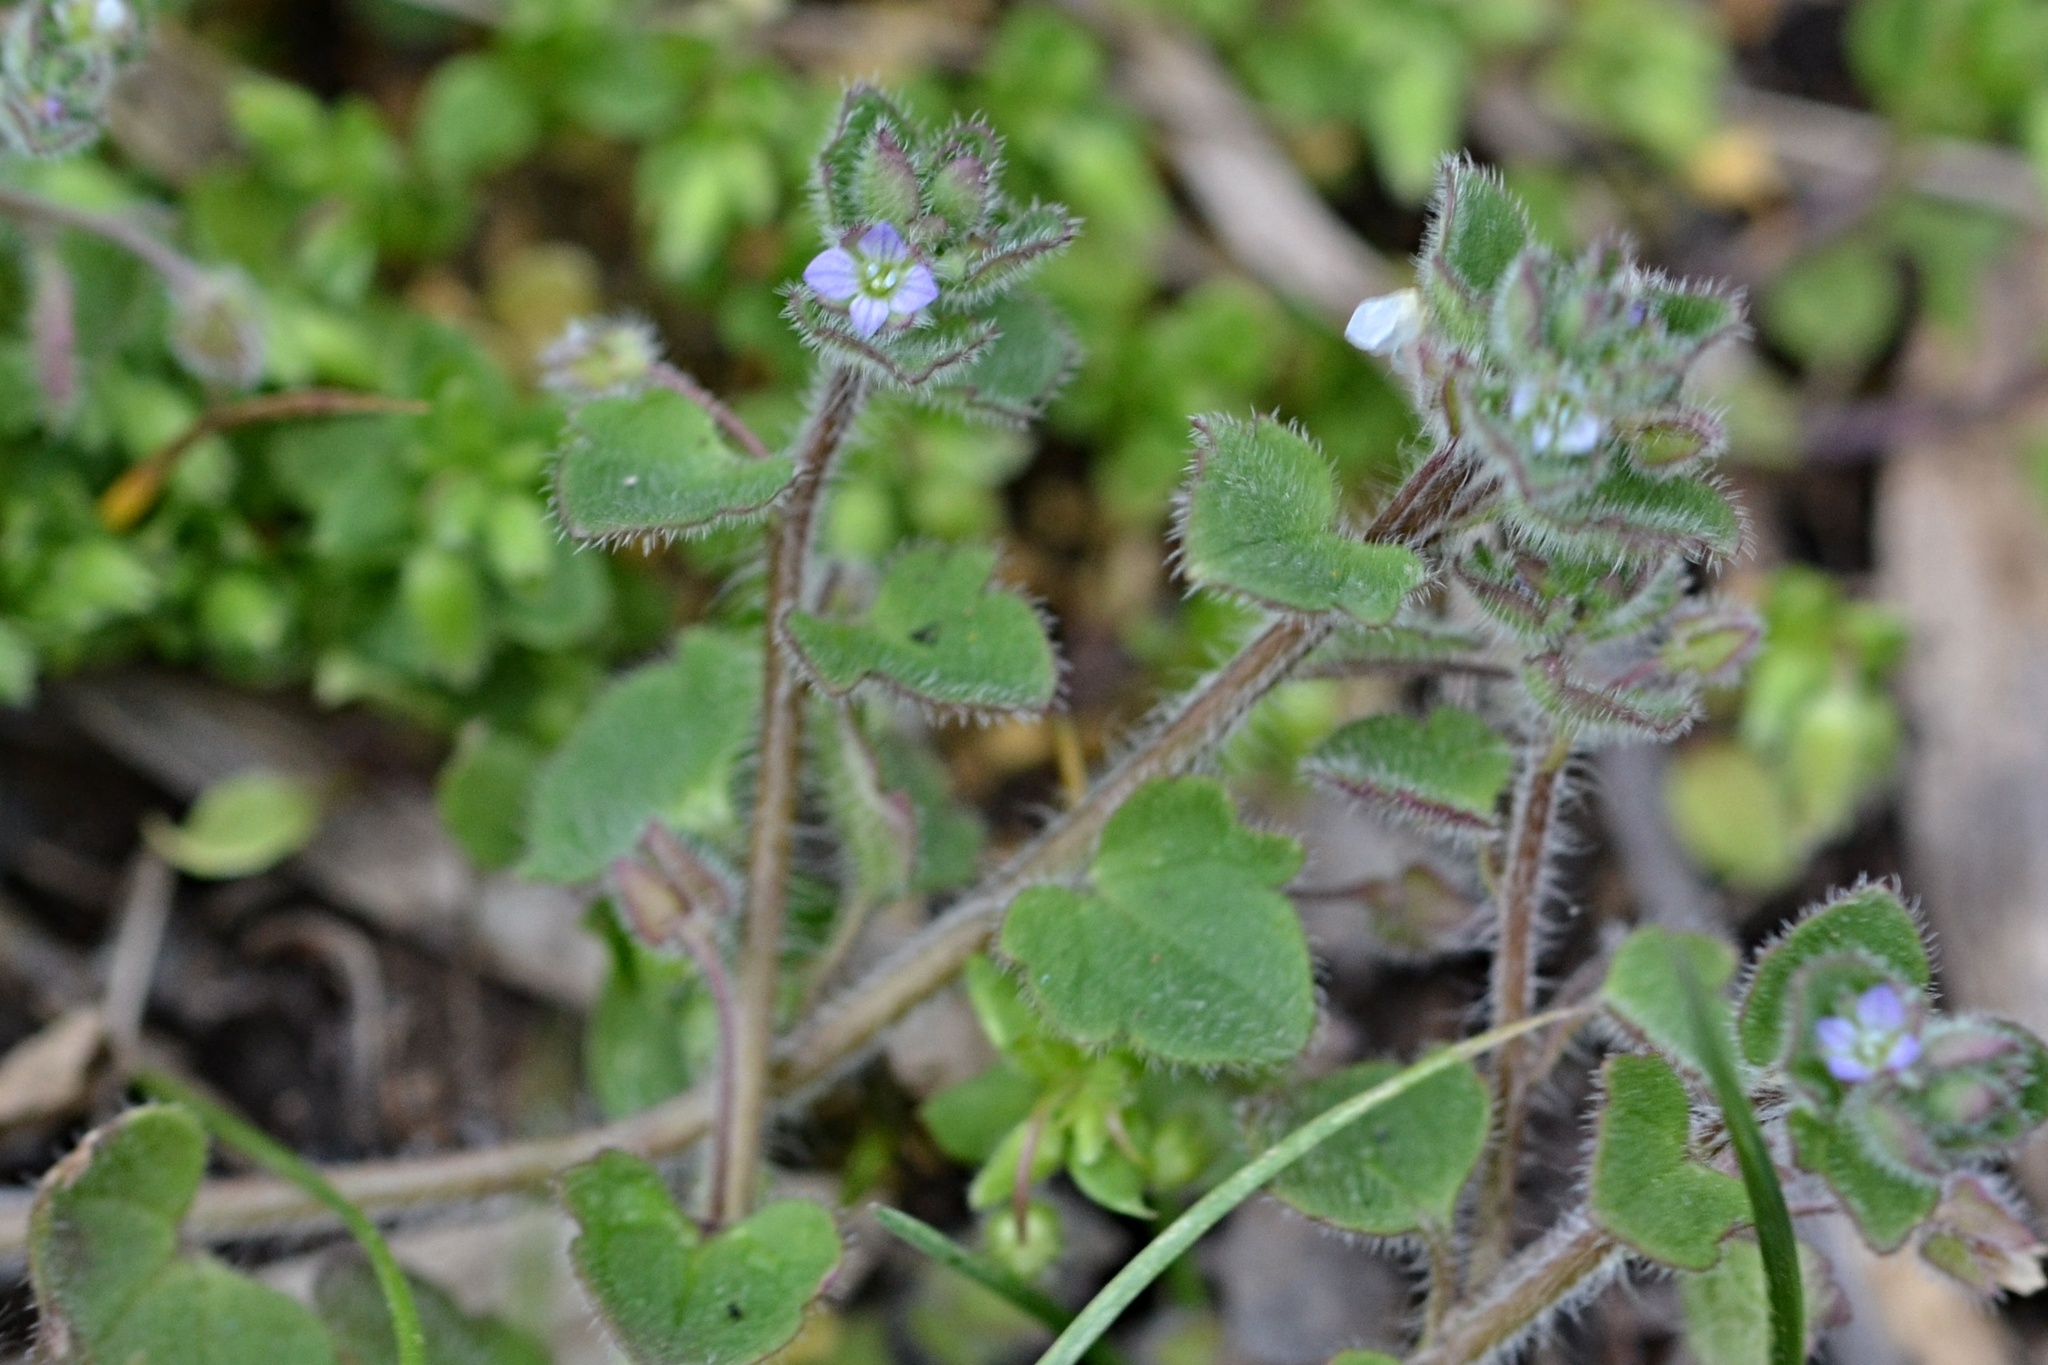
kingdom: Plantae
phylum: Tracheophyta
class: Magnoliopsida
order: Lamiales
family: Plantaginaceae
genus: Veronica
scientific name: Veronica sublobata
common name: False ivy-leaved speedwell
